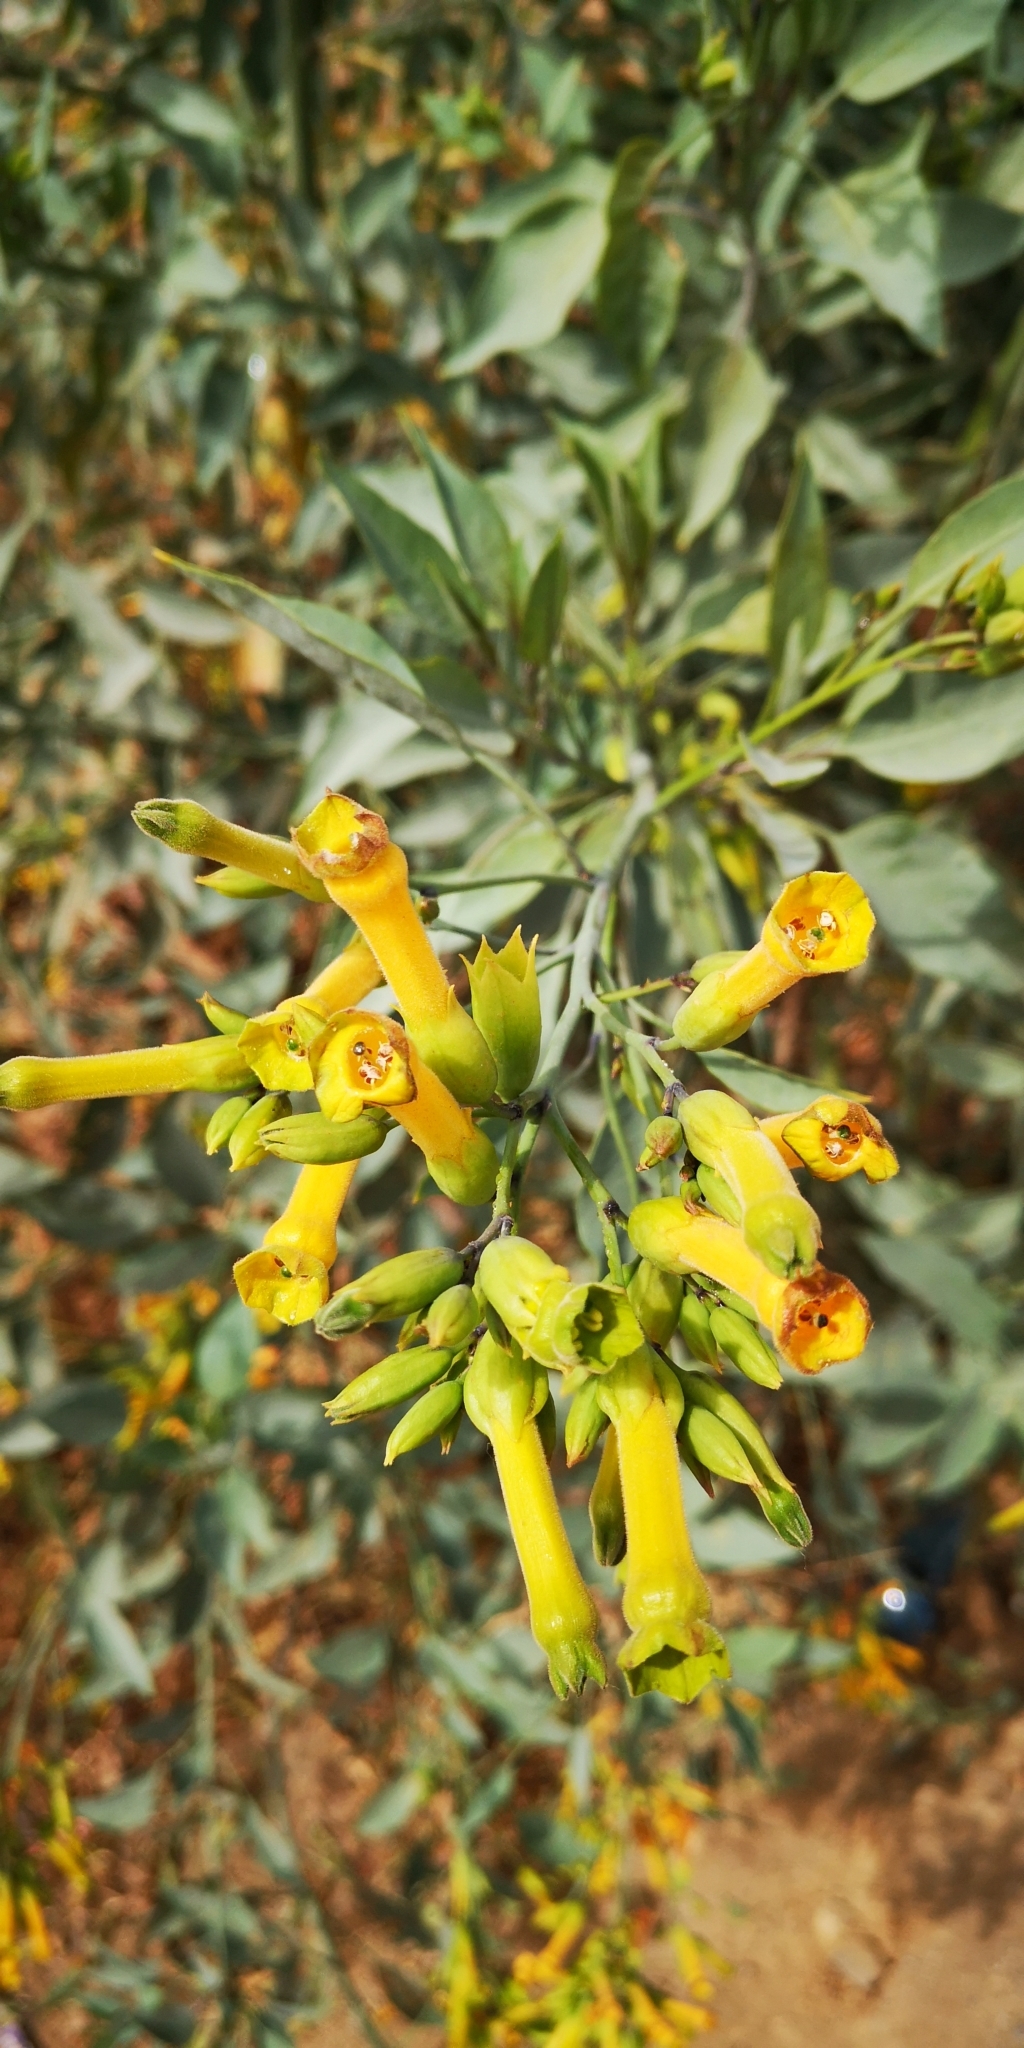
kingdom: Plantae
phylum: Tracheophyta
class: Magnoliopsida
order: Solanales
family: Solanaceae
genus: Nicotiana
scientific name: Nicotiana glauca
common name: Tree tobacco
